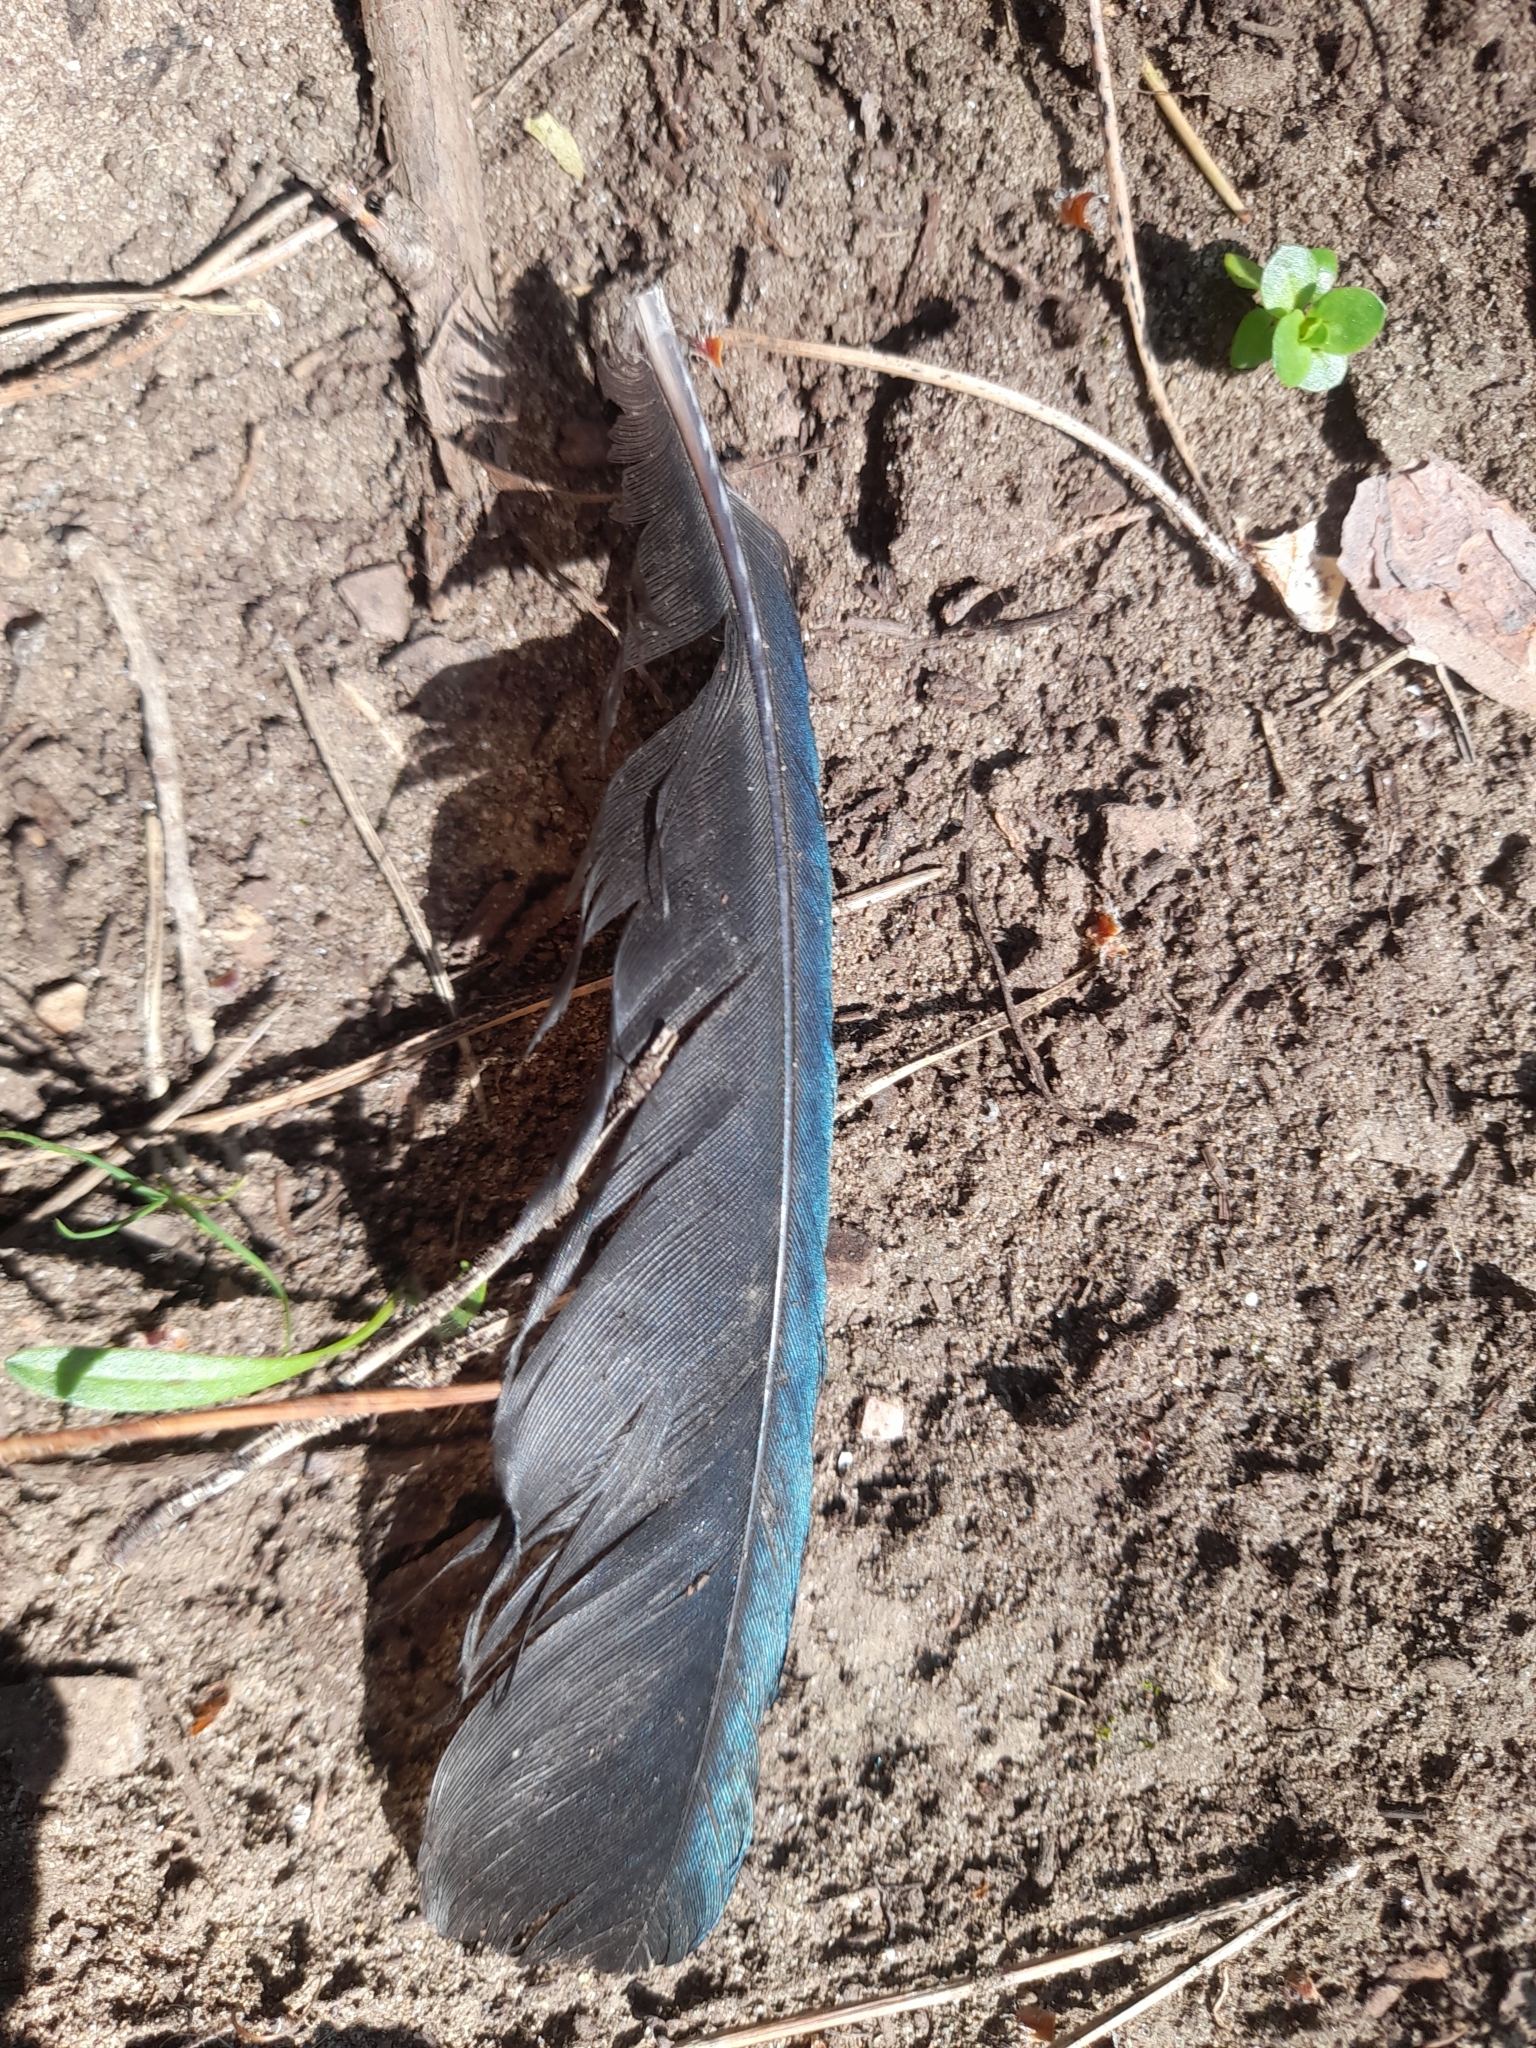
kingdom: Animalia
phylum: Chordata
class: Aves
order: Passeriformes
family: Corvidae
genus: Pica
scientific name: Pica pica
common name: Eurasian magpie
